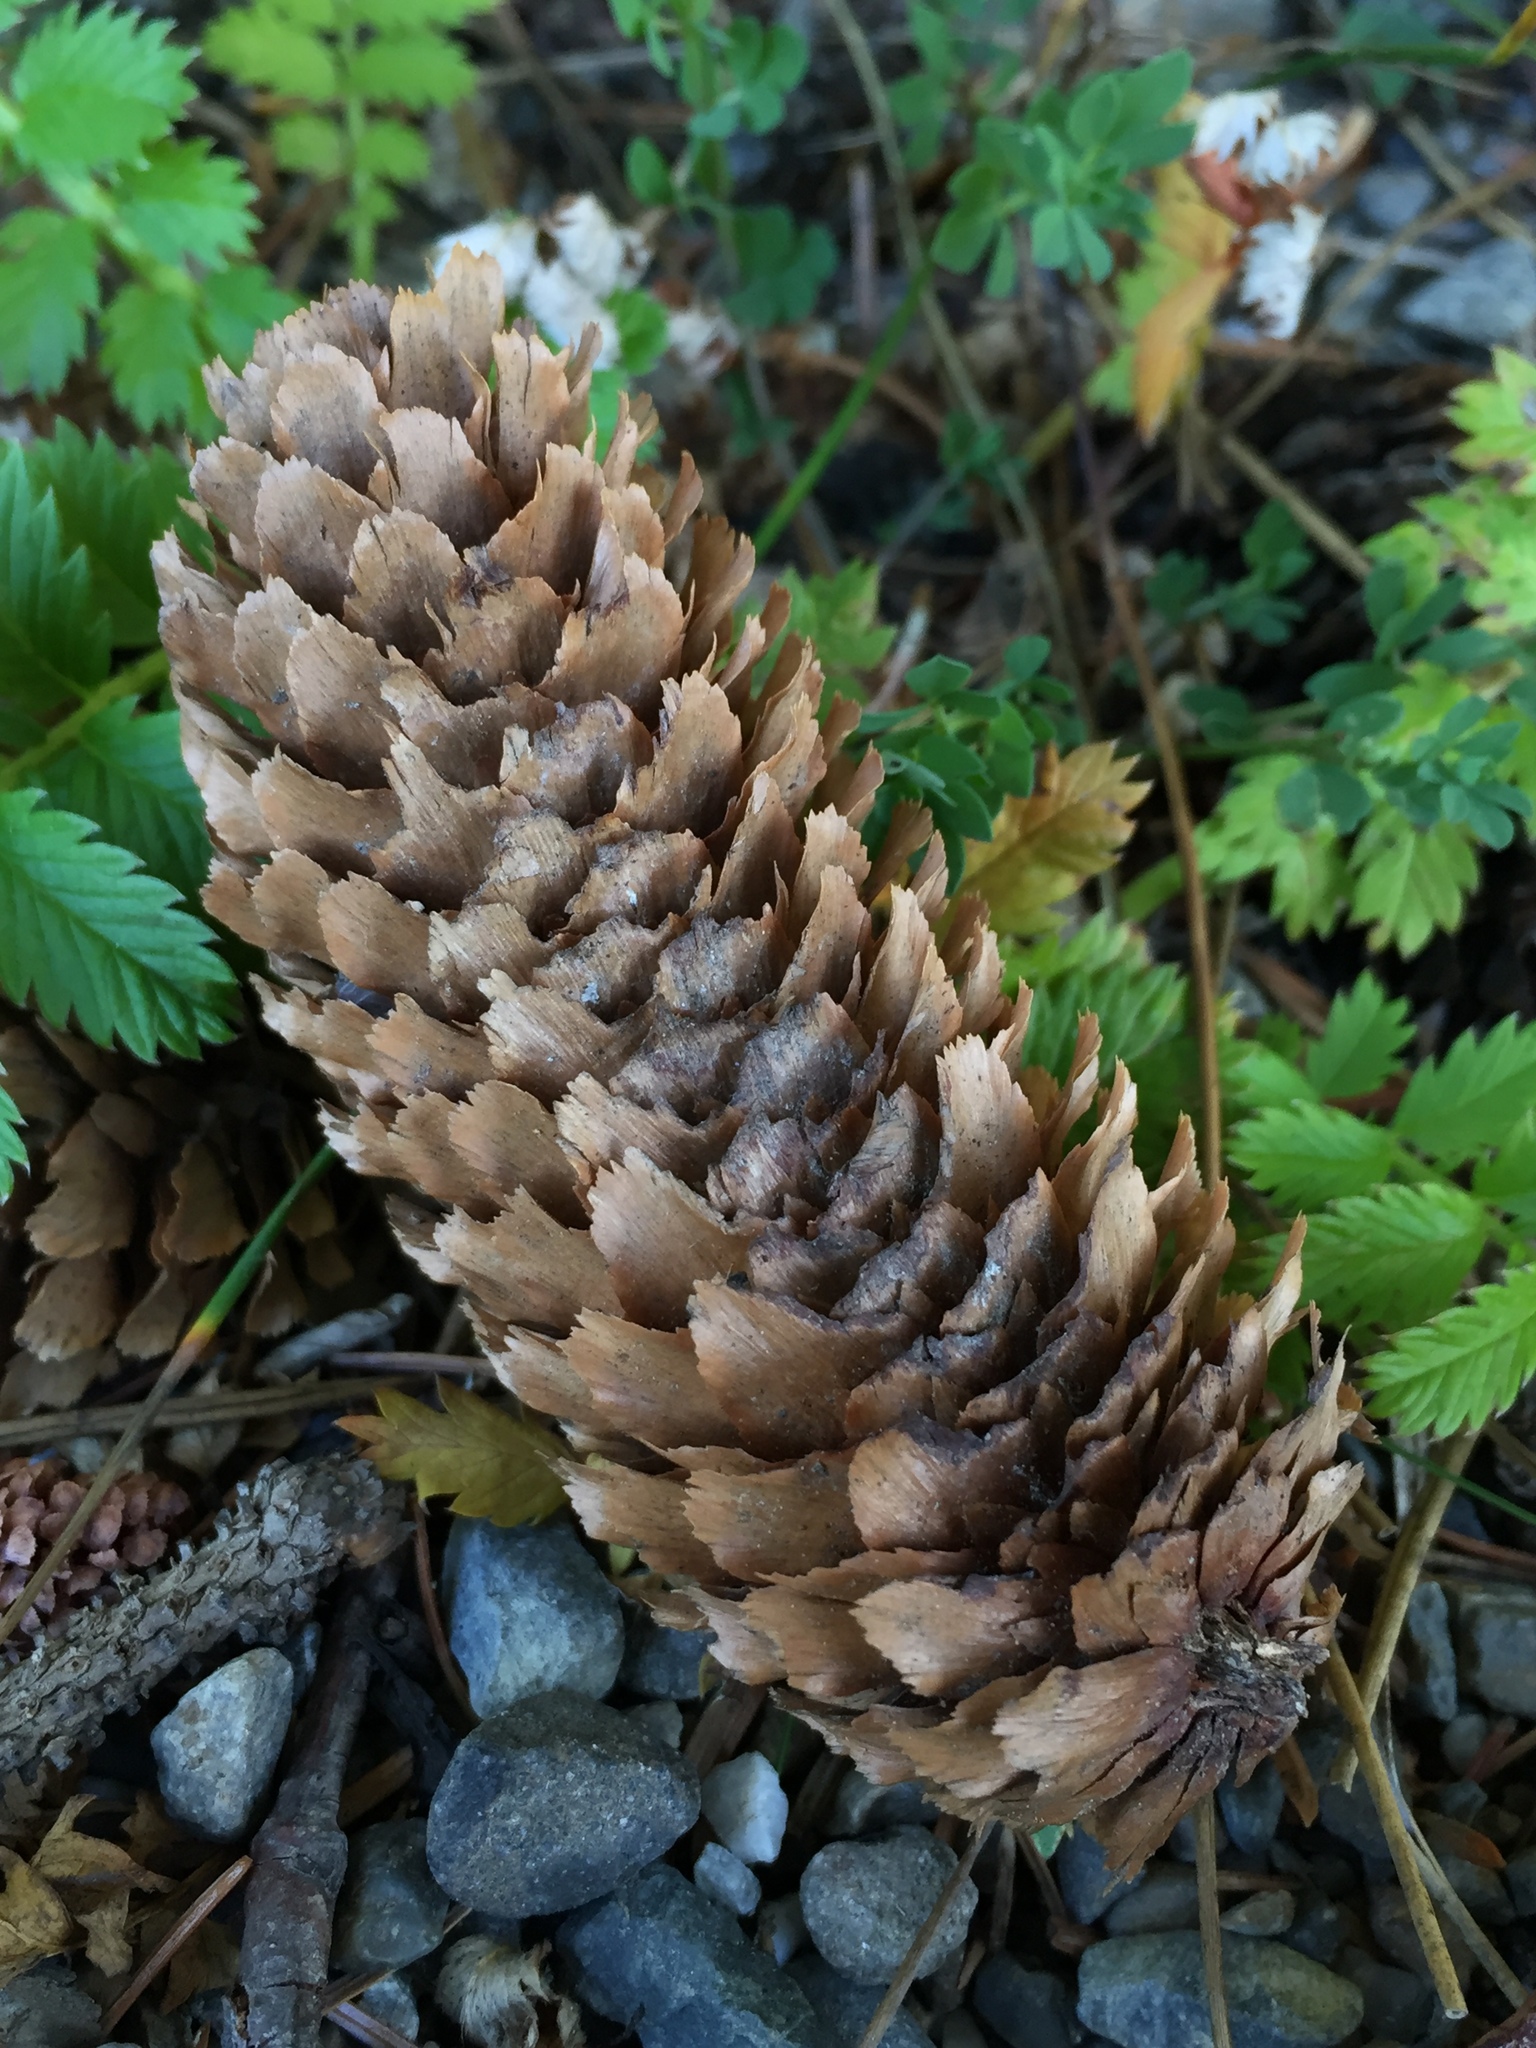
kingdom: Plantae
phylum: Tracheophyta
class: Pinopsida
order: Pinales
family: Pinaceae
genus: Picea
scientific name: Picea sitchensis
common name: Sitka spruce
